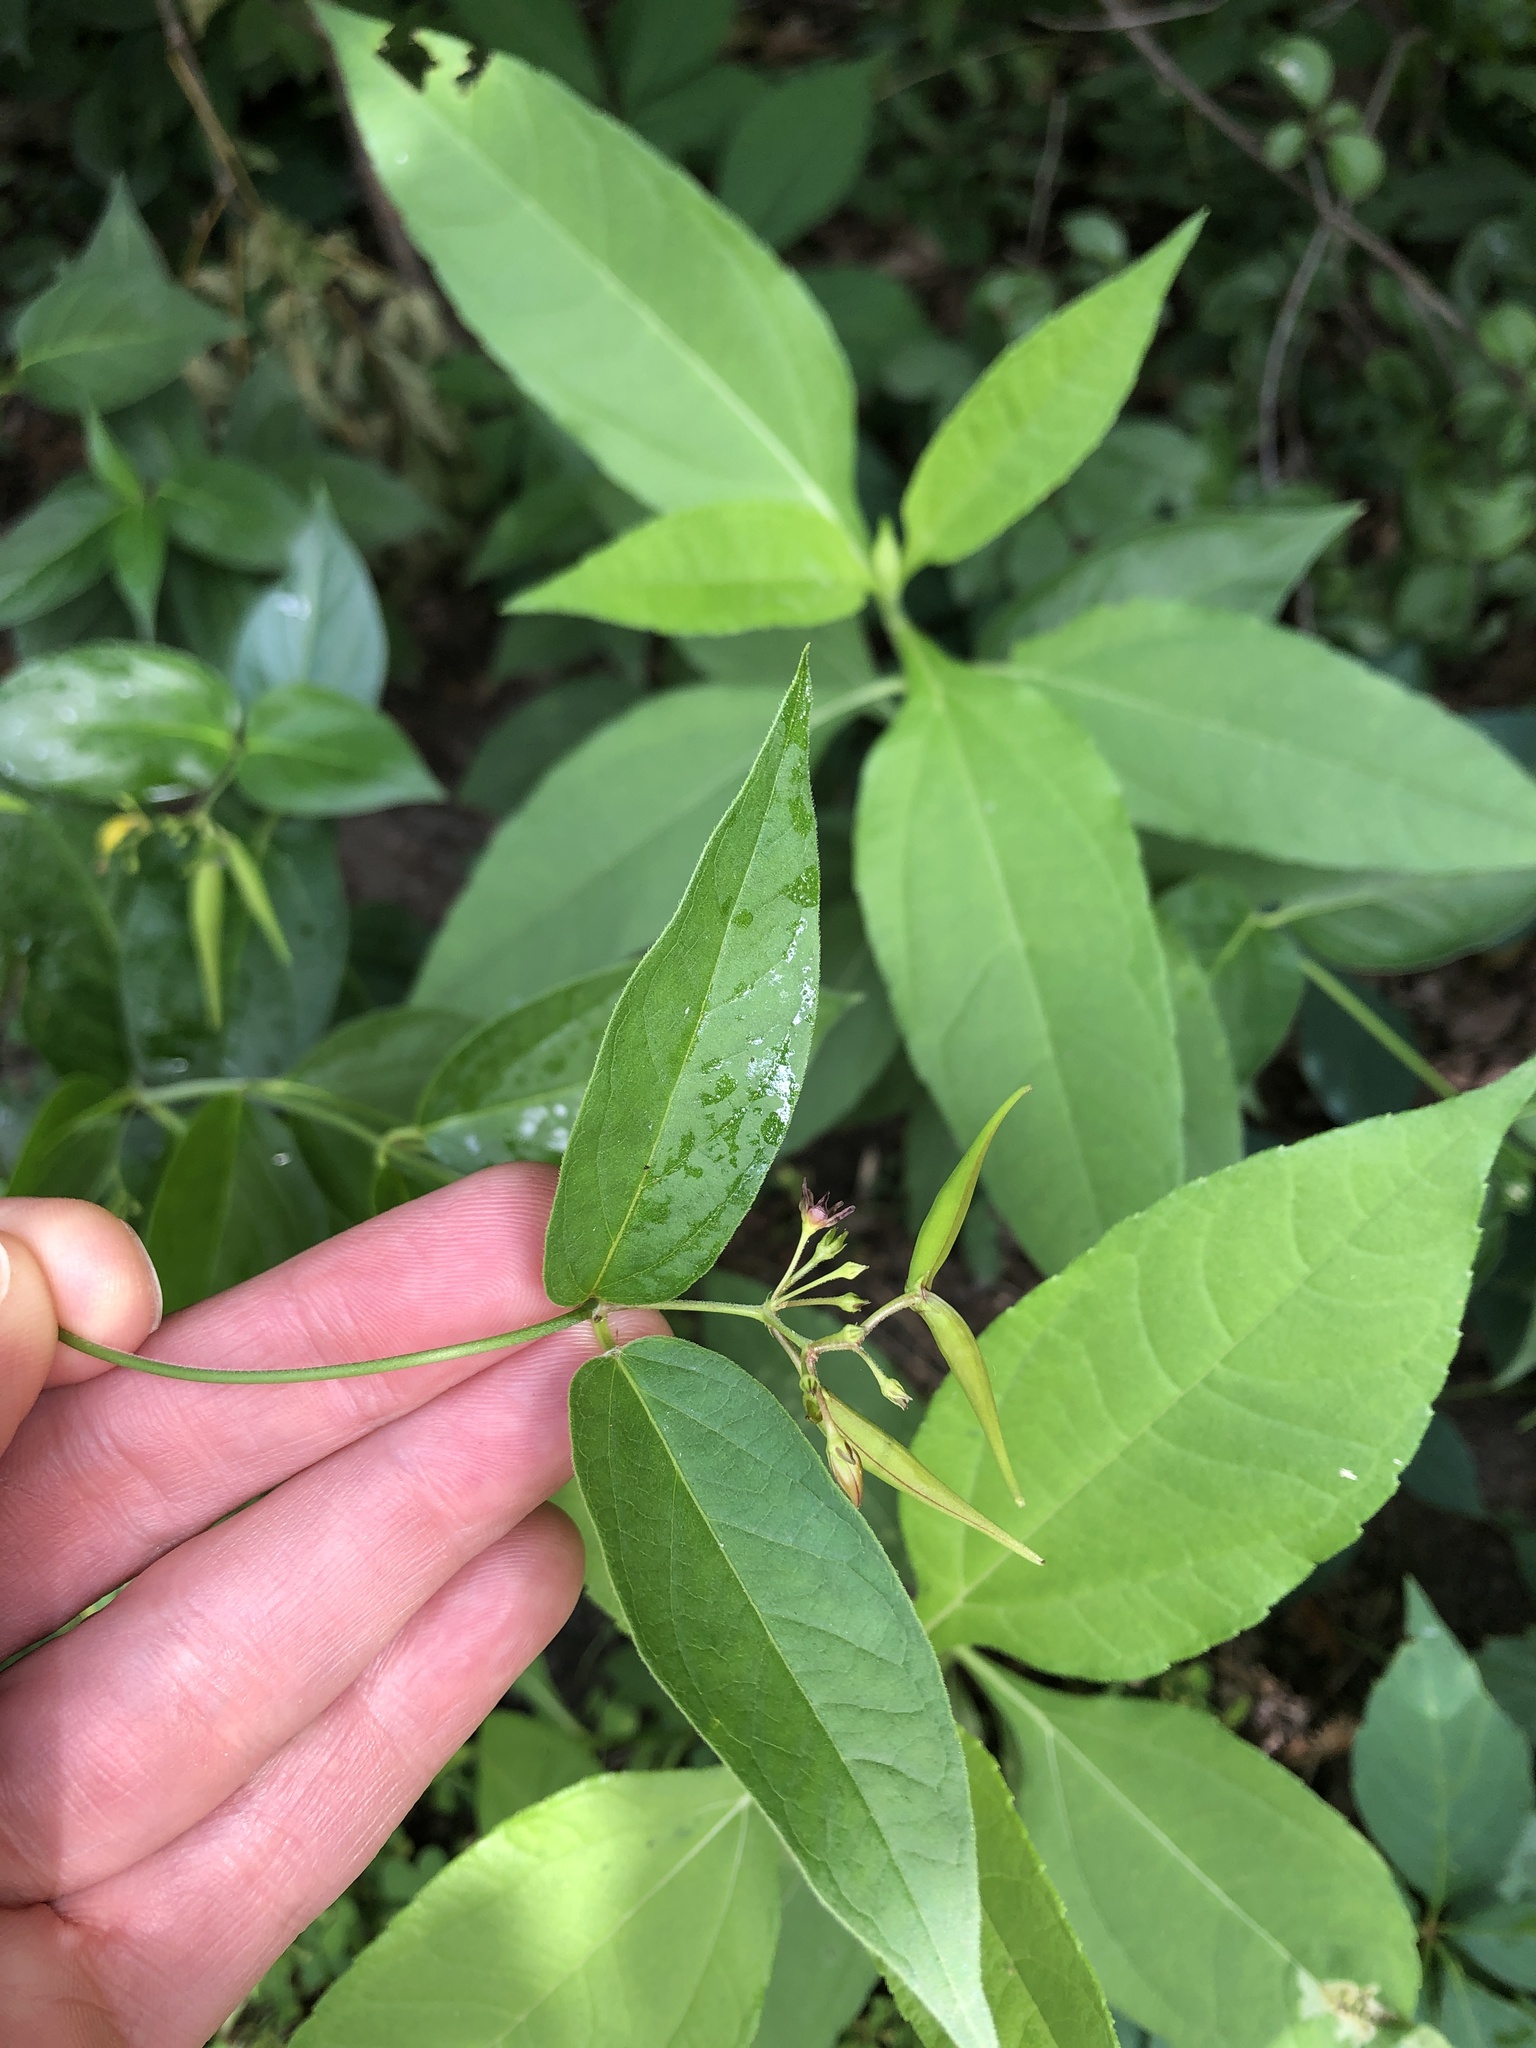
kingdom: Plantae
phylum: Tracheophyta
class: Magnoliopsida
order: Gentianales
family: Apocynaceae
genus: Vincetoxicum
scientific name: Vincetoxicum rossicum
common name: Dog-strangling vine
